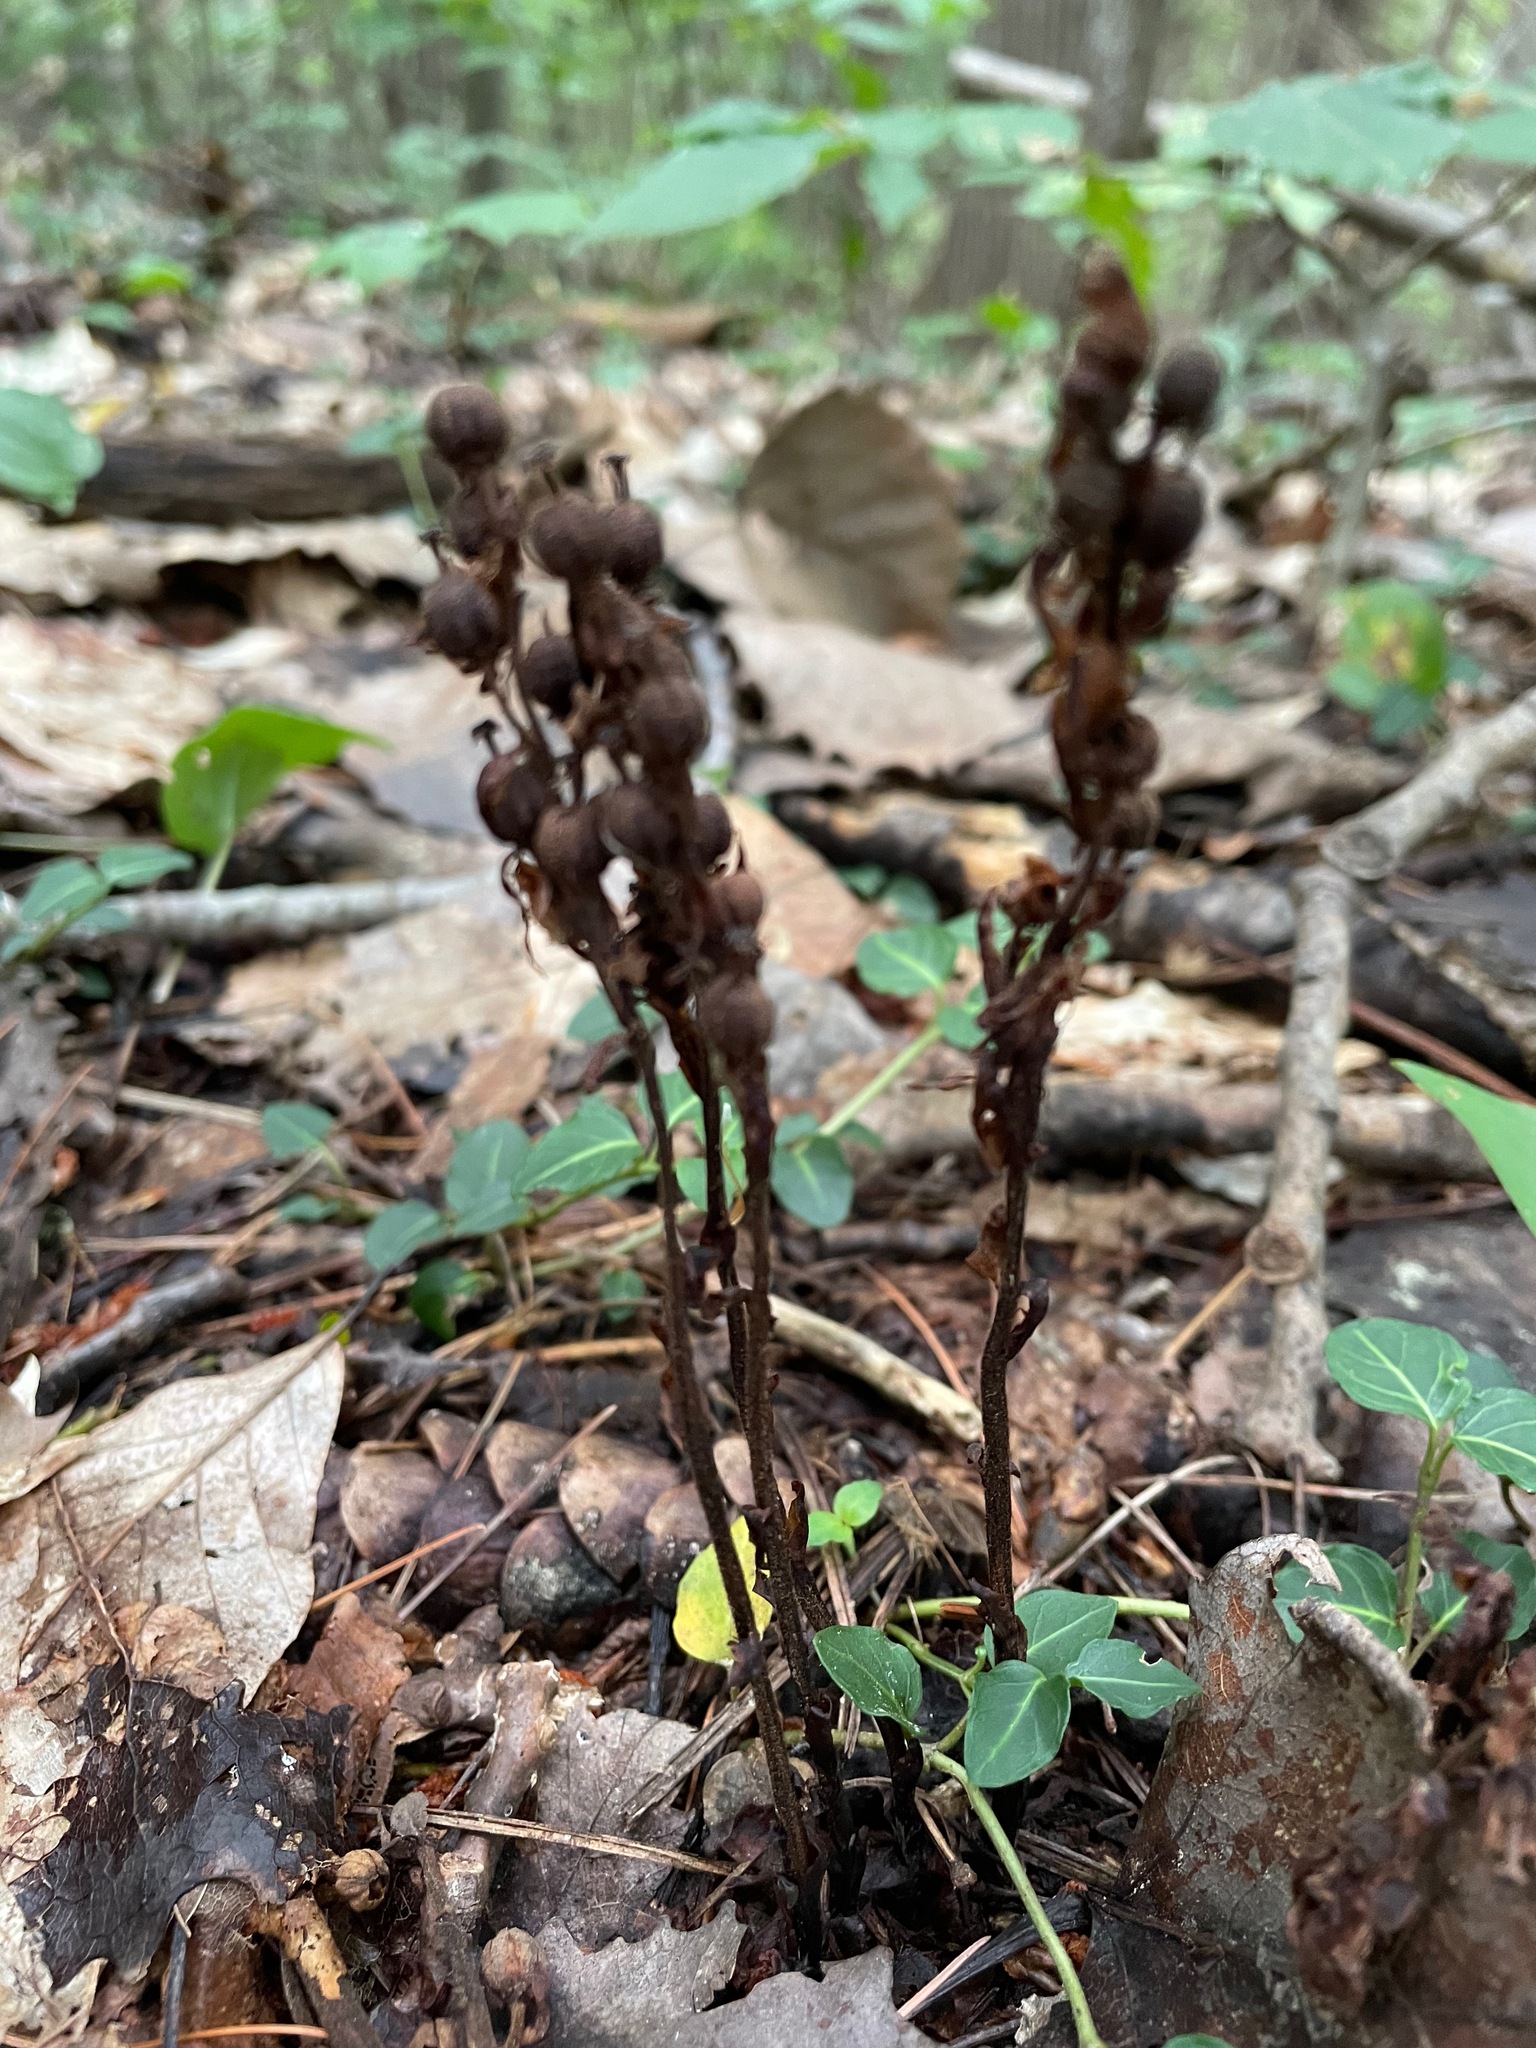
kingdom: Plantae
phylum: Tracheophyta
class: Magnoliopsida
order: Ericales
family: Ericaceae
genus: Hypopitys
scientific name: Hypopitys monotropa
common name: Yellow bird's-nest
